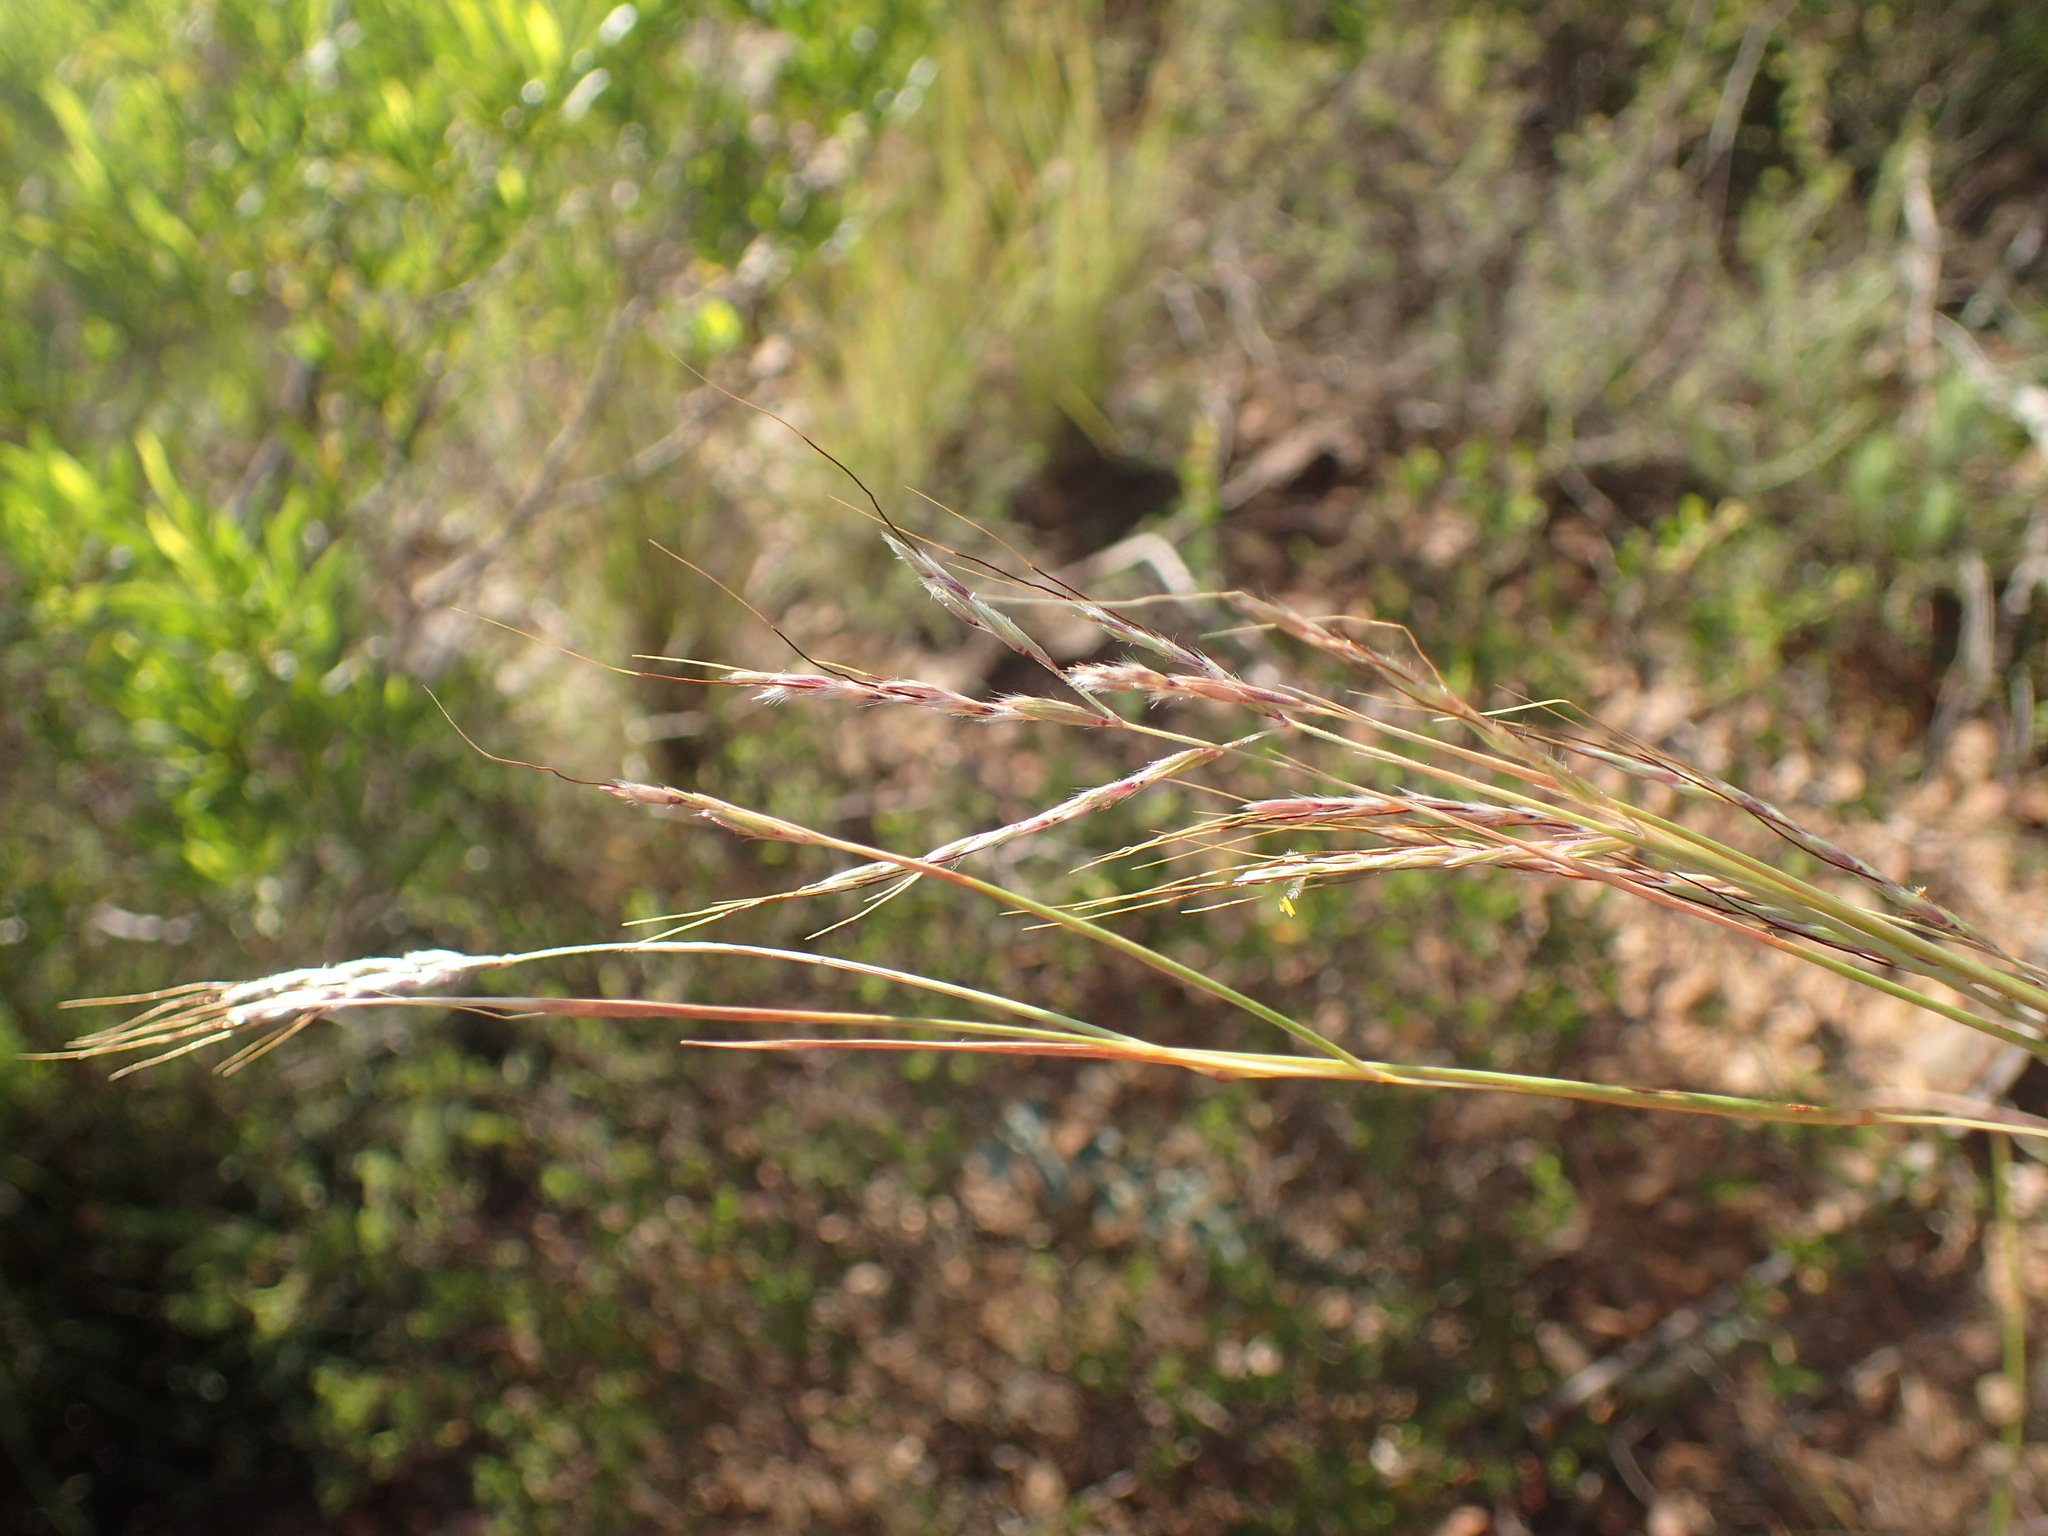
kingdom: Plantae
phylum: Tracheophyta
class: Liliopsida
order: Poales
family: Poaceae
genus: Hyparrhenia
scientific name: Hyparrhenia hirta
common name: Thatching grass
